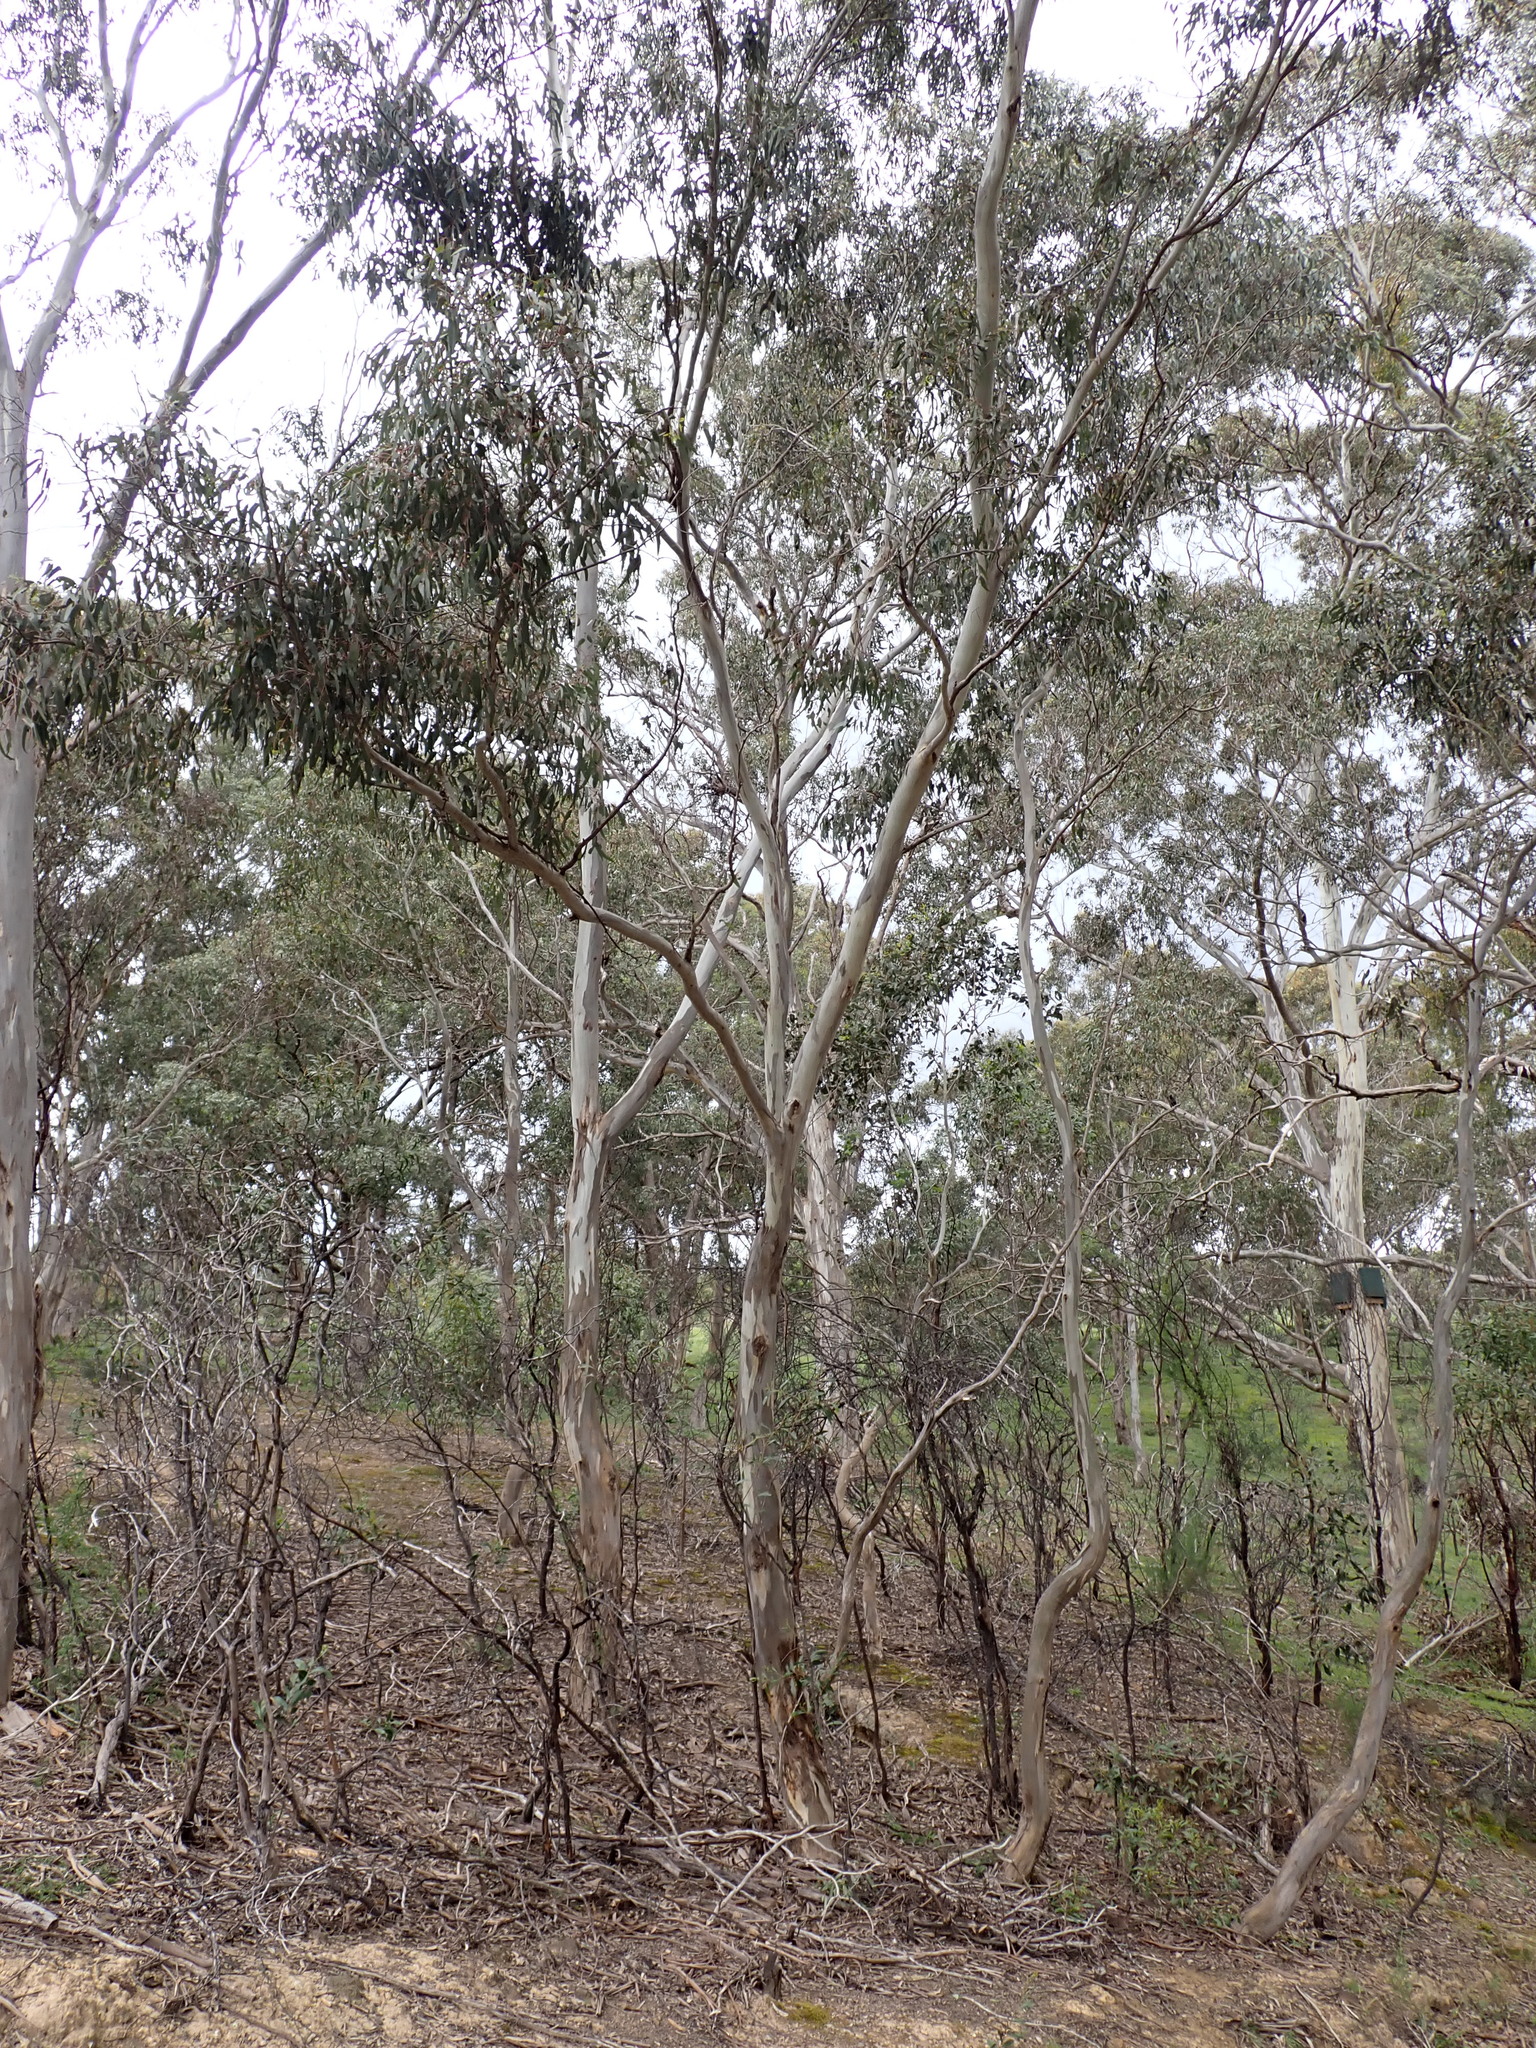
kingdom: Plantae
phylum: Tracheophyta
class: Magnoliopsida
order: Myrtales
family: Myrtaceae
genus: Eucalyptus
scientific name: Eucalyptus leucoxylon
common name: Blue gum
